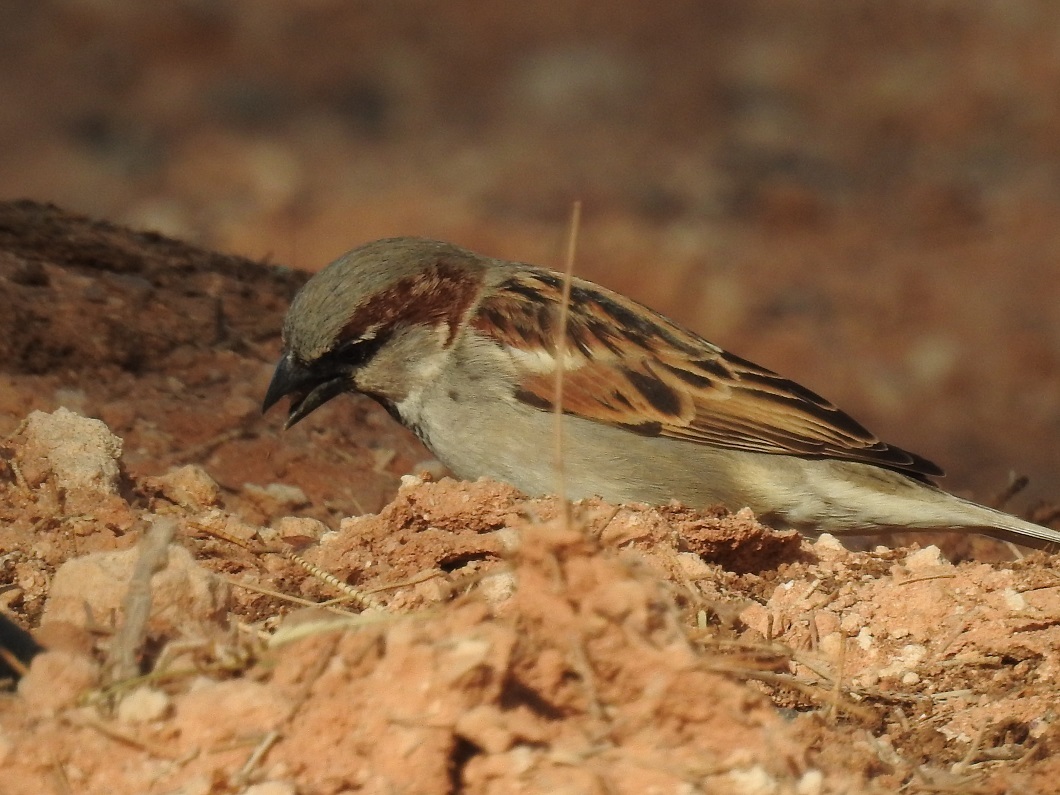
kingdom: Animalia
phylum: Chordata
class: Aves
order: Passeriformes
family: Passeridae
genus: Passer
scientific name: Passer domesticus
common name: House sparrow
